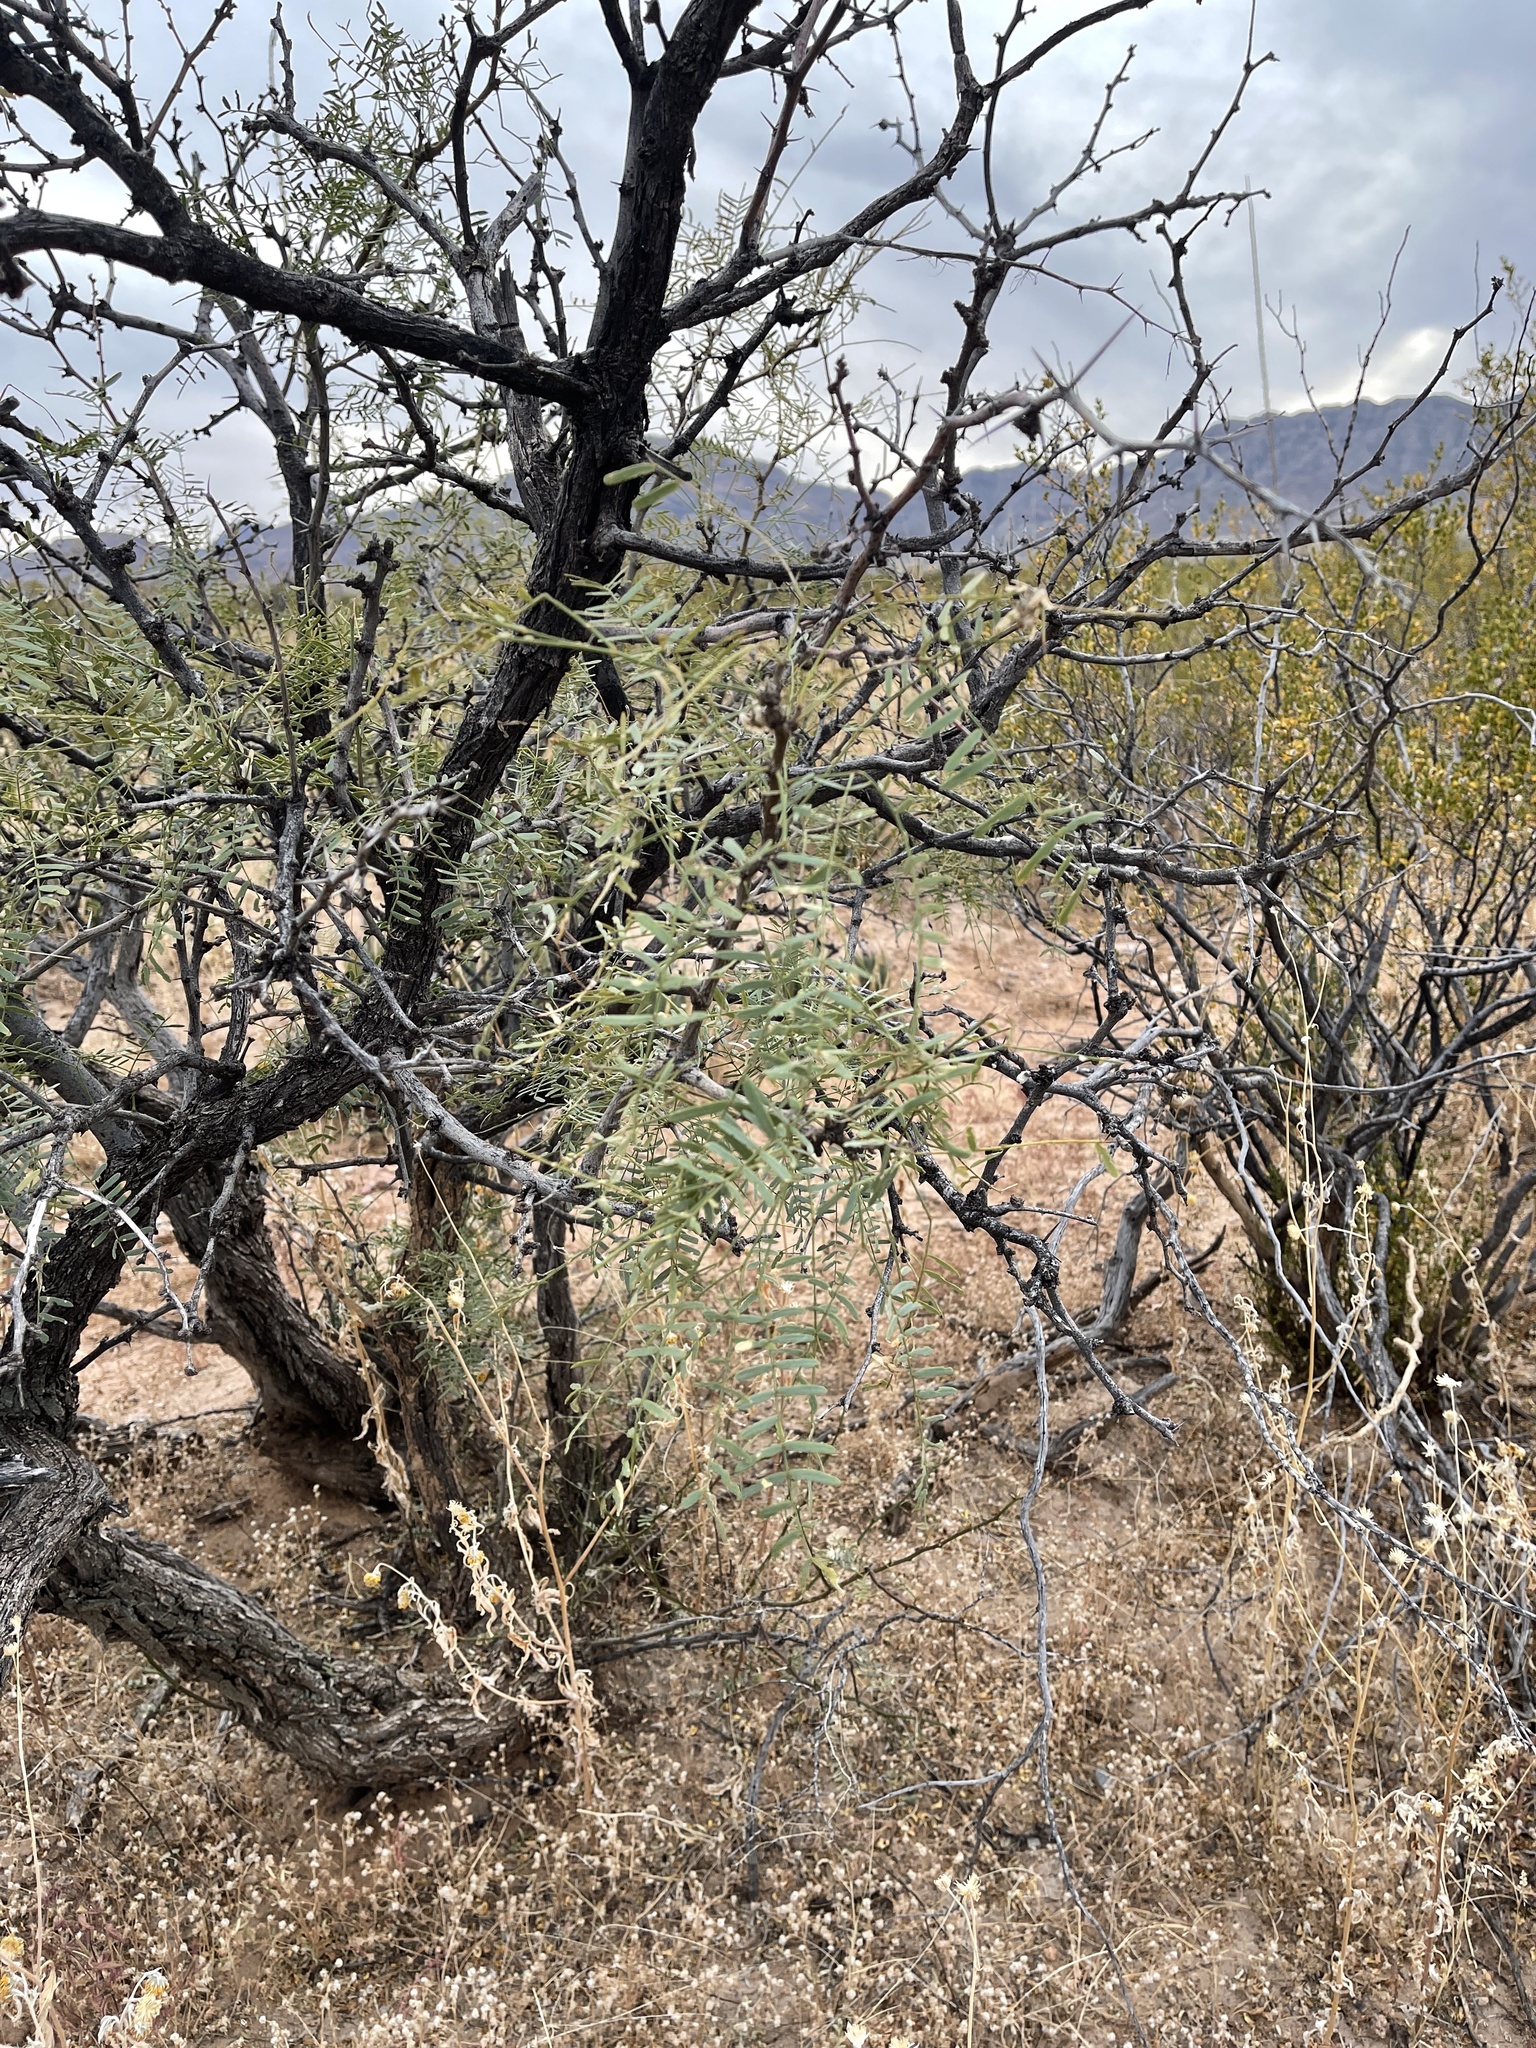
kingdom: Plantae
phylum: Tracheophyta
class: Magnoliopsida
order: Fabales
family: Fabaceae
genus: Prosopis
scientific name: Prosopis glandulosa
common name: Honey mesquite
